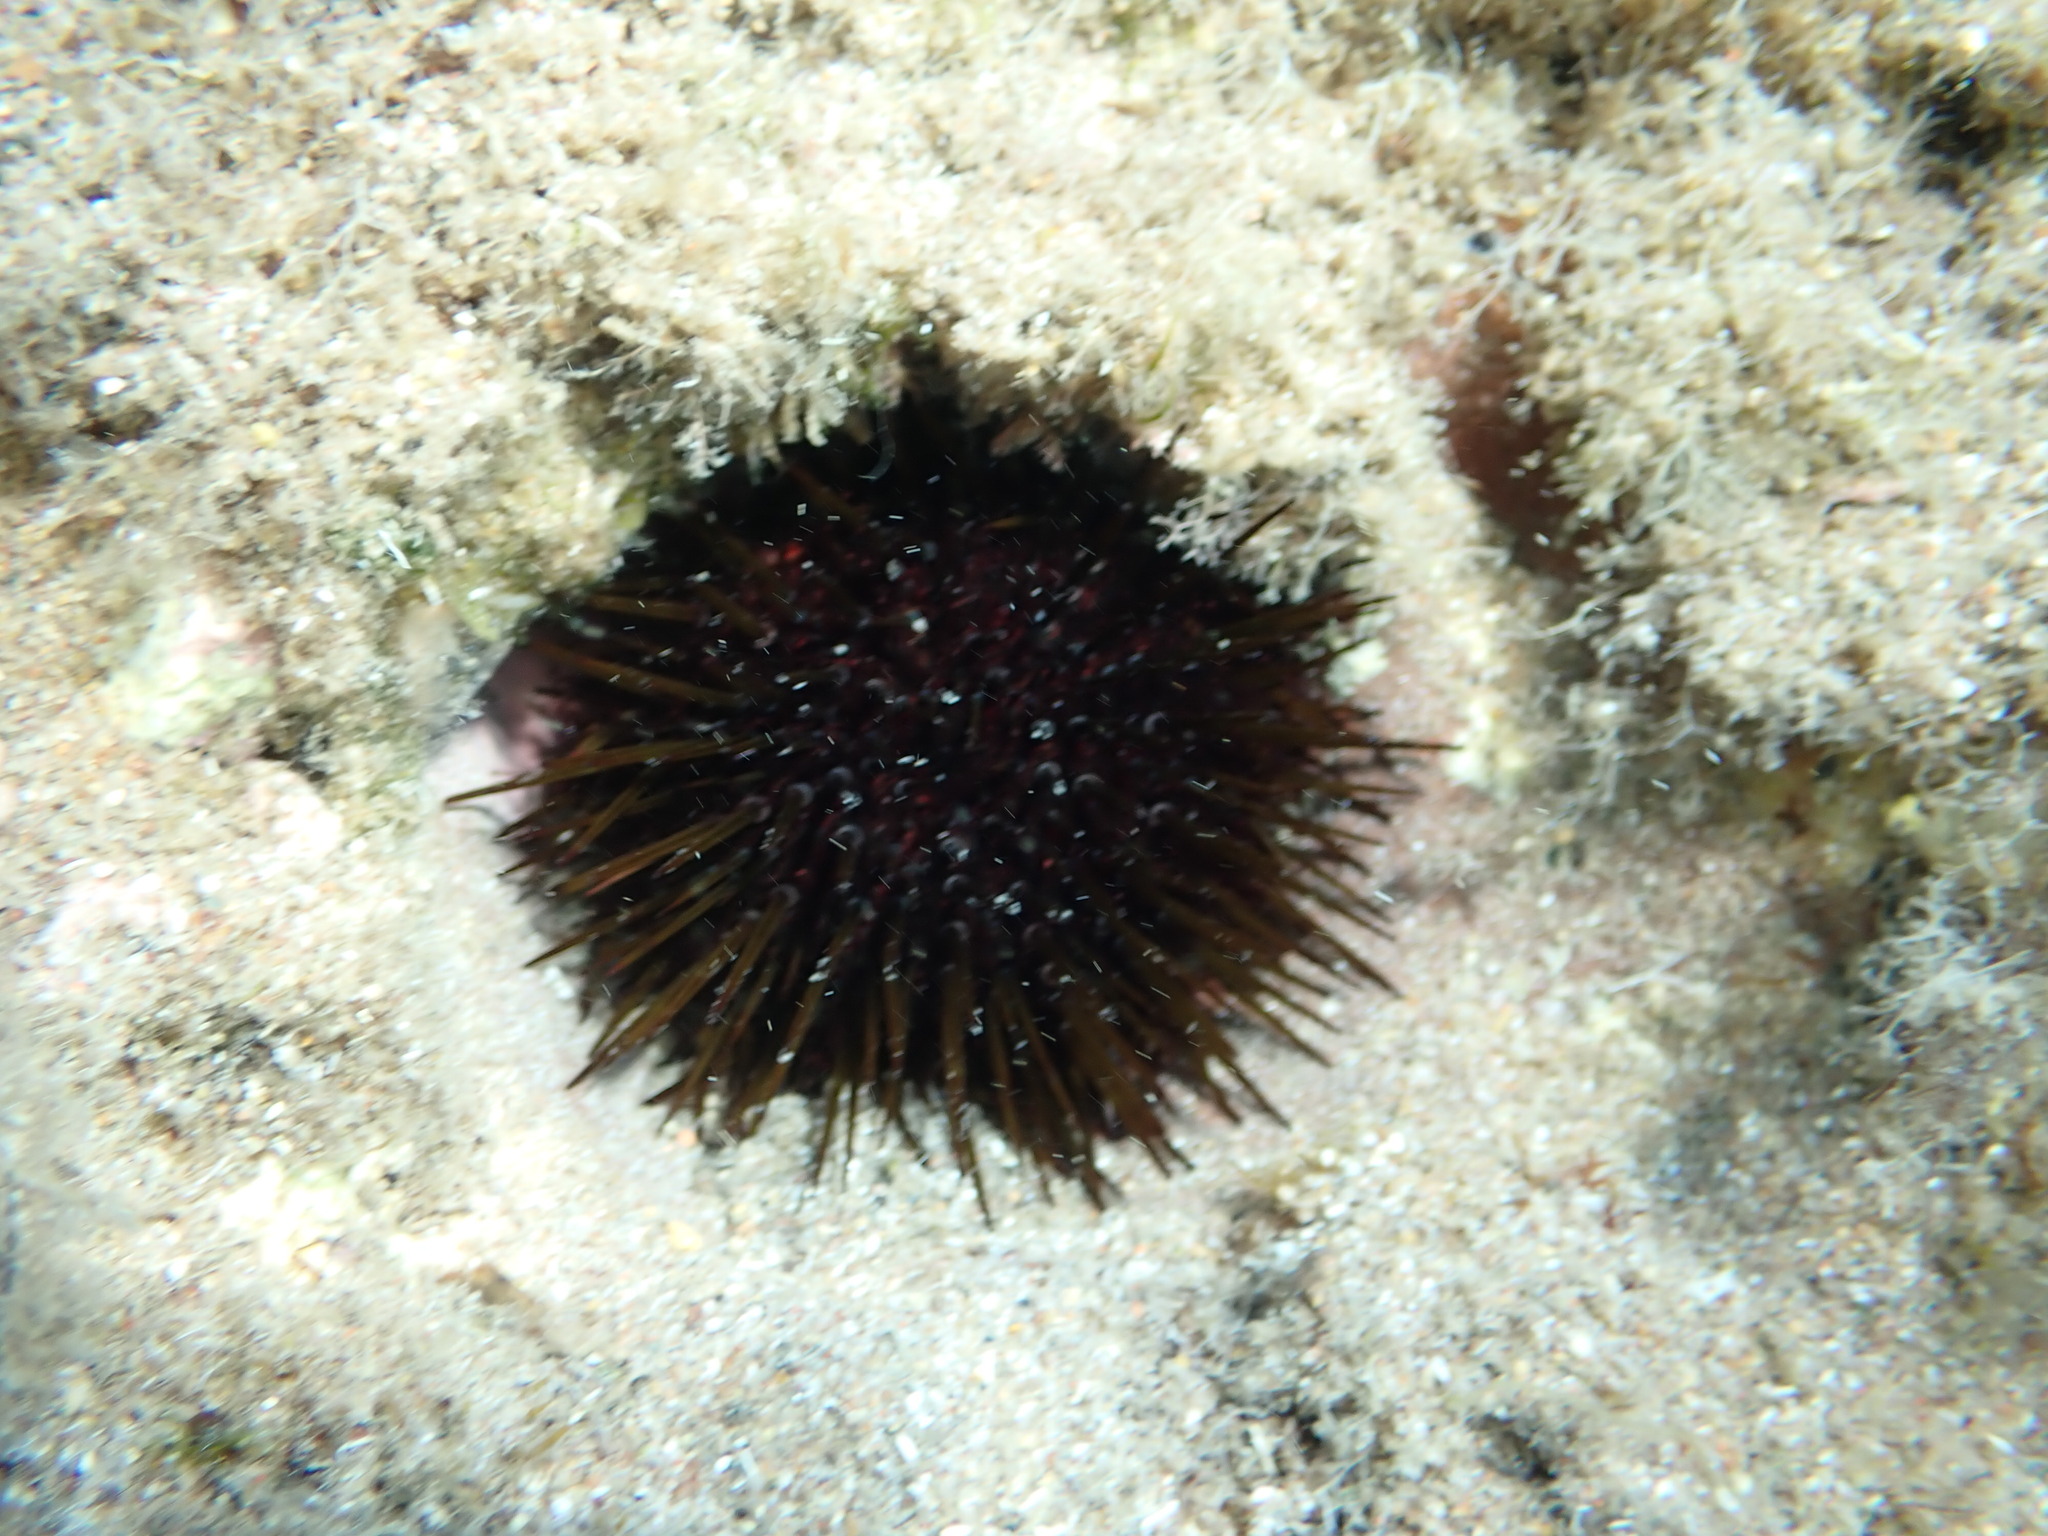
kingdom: Animalia
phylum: Echinodermata
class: Echinoidea
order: Camarodonta
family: Parechinidae
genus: Paracentrotus
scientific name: Paracentrotus lividus
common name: Purple sea urchin
